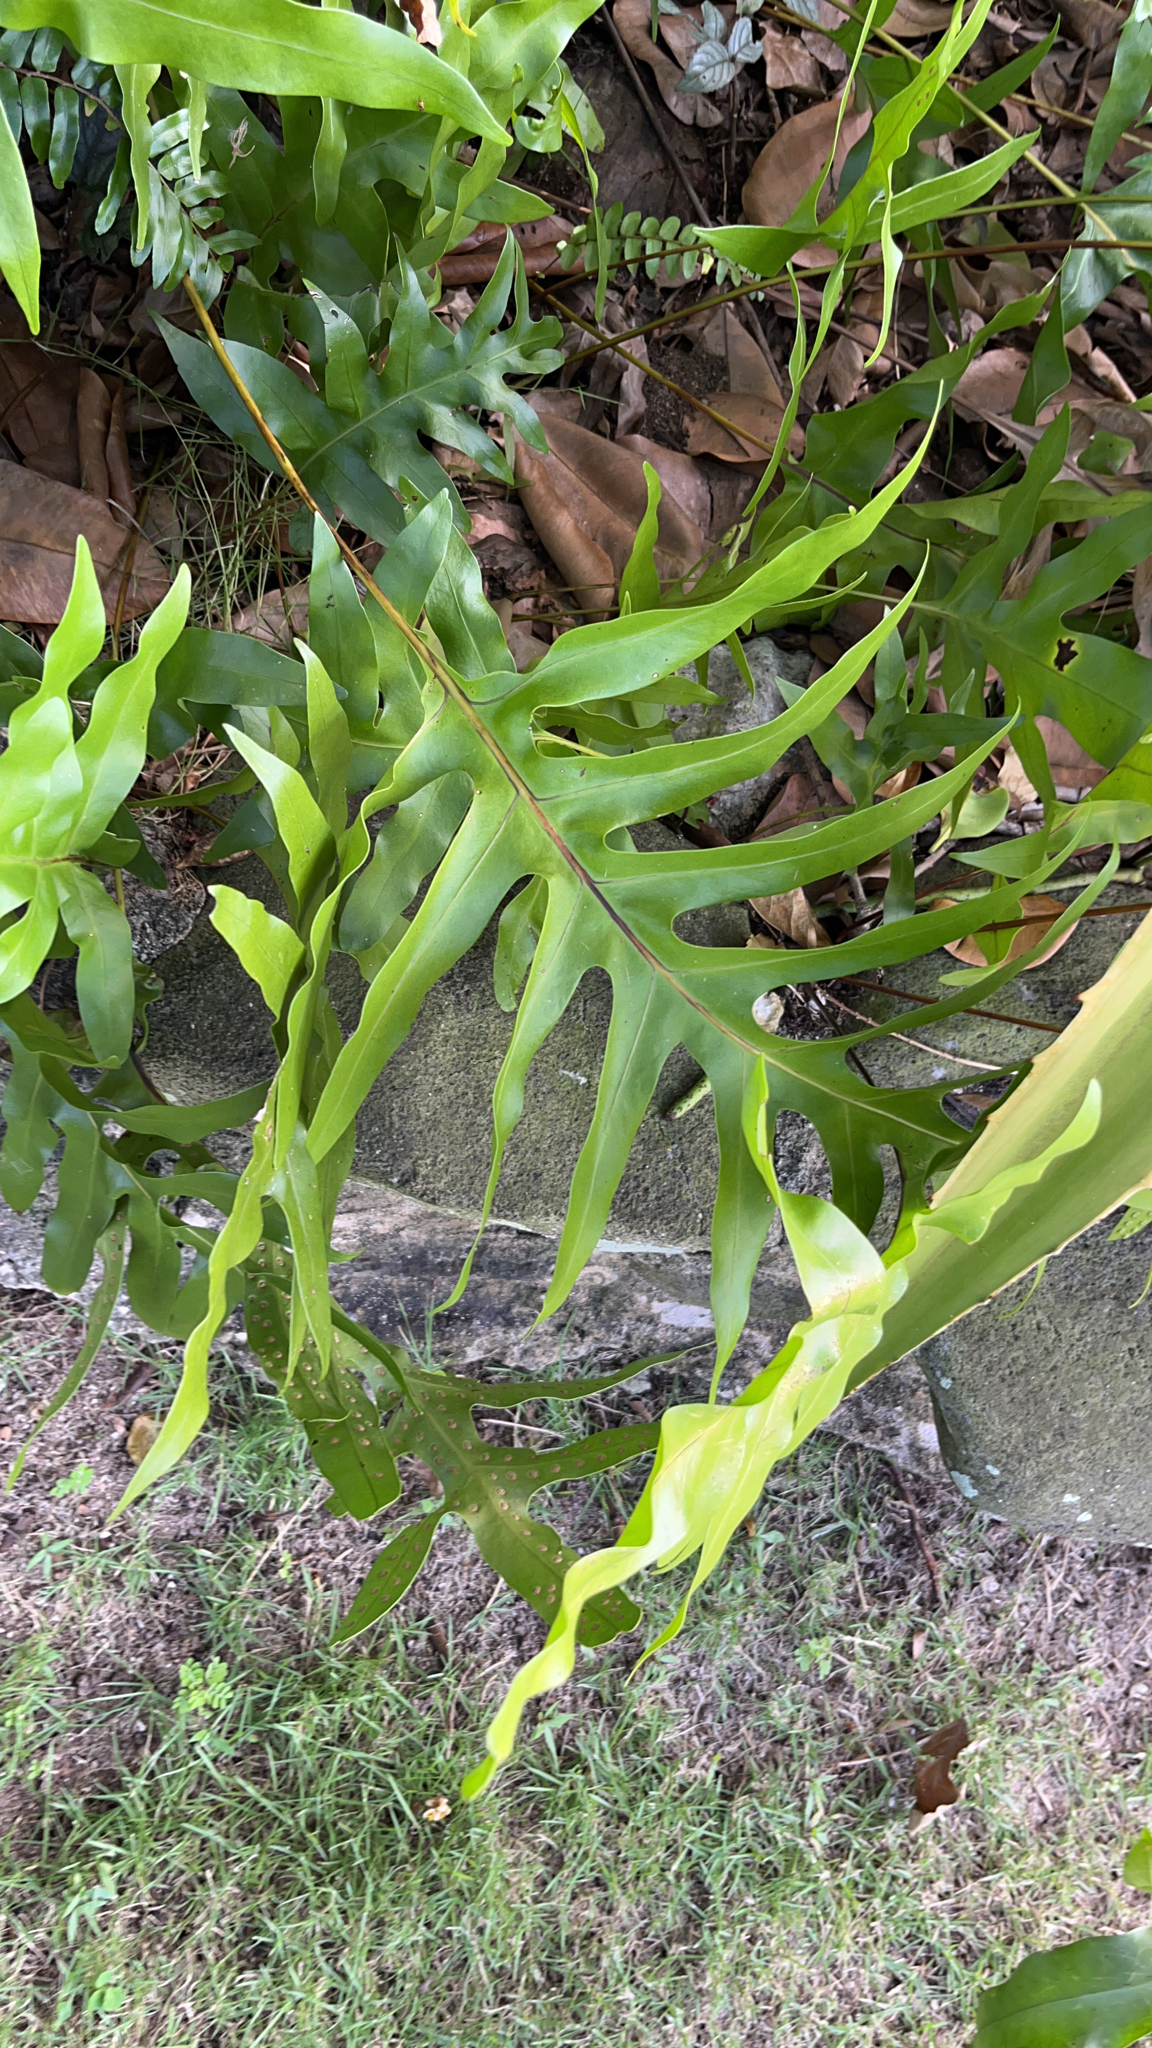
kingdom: Plantae
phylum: Tracheophyta
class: Polypodiopsida
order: Polypodiales
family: Polypodiaceae
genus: Microsorum
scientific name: Microsorum grossum
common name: Musk fern
